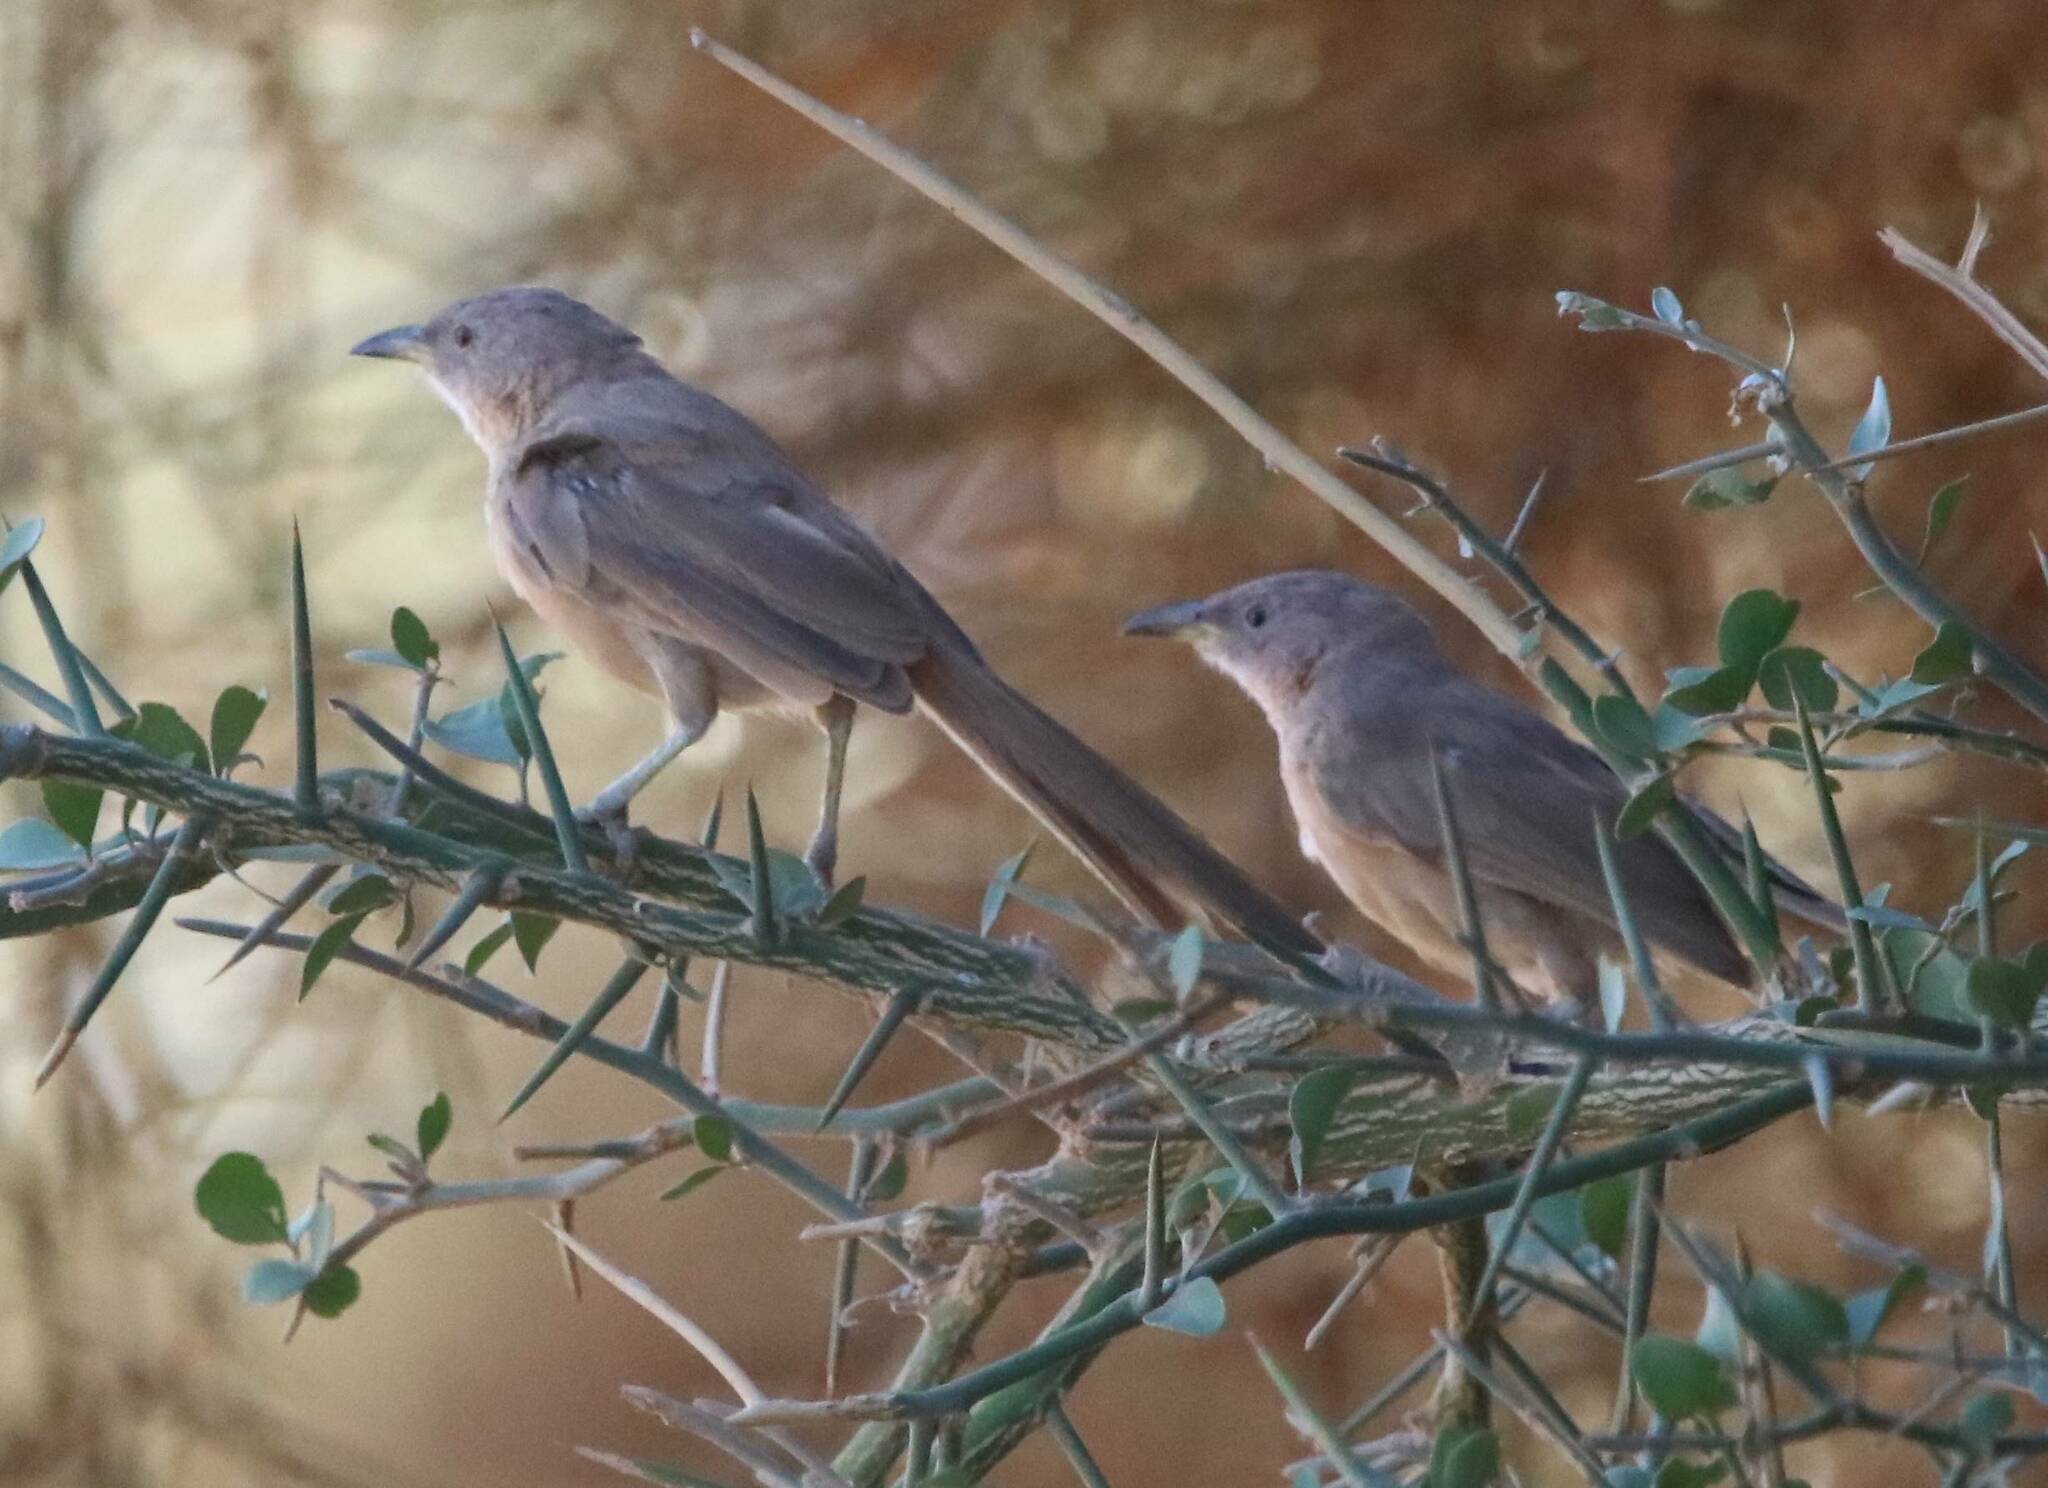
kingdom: Animalia
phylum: Chordata
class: Aves
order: Passeriformes
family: Leiothrichidae
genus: Turdoides
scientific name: Turdoides fulva
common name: Fulvous babbler
